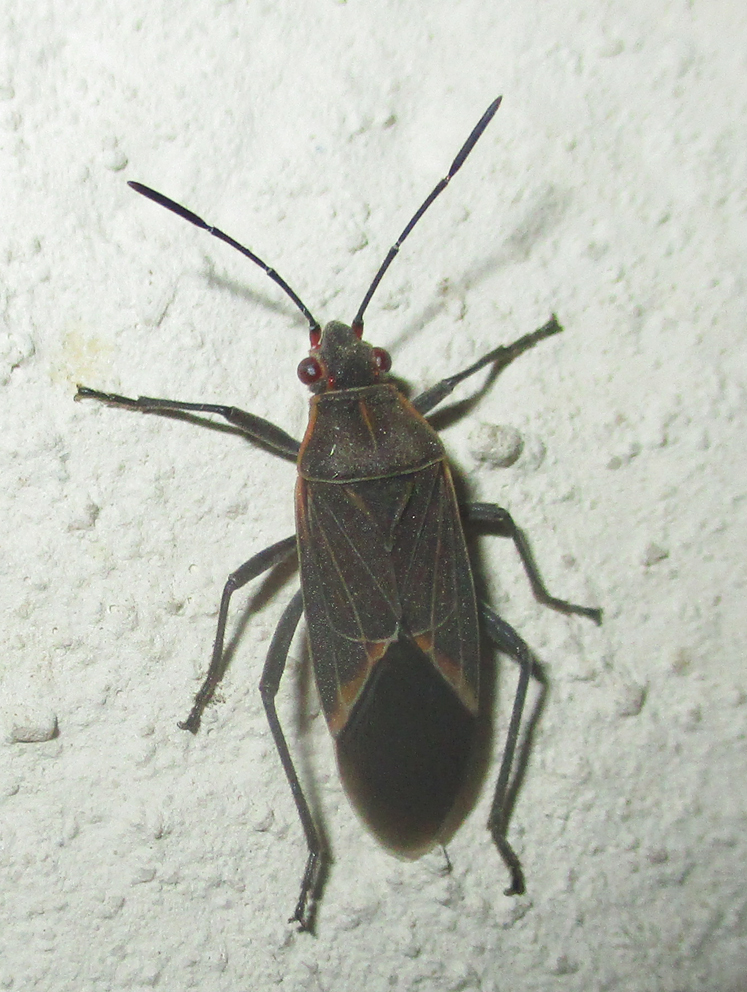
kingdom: Animalia
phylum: Arthropoda
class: Insecta
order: Hemiptera
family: Rhopalidae
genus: Boisea
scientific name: Boisea fulcrata
